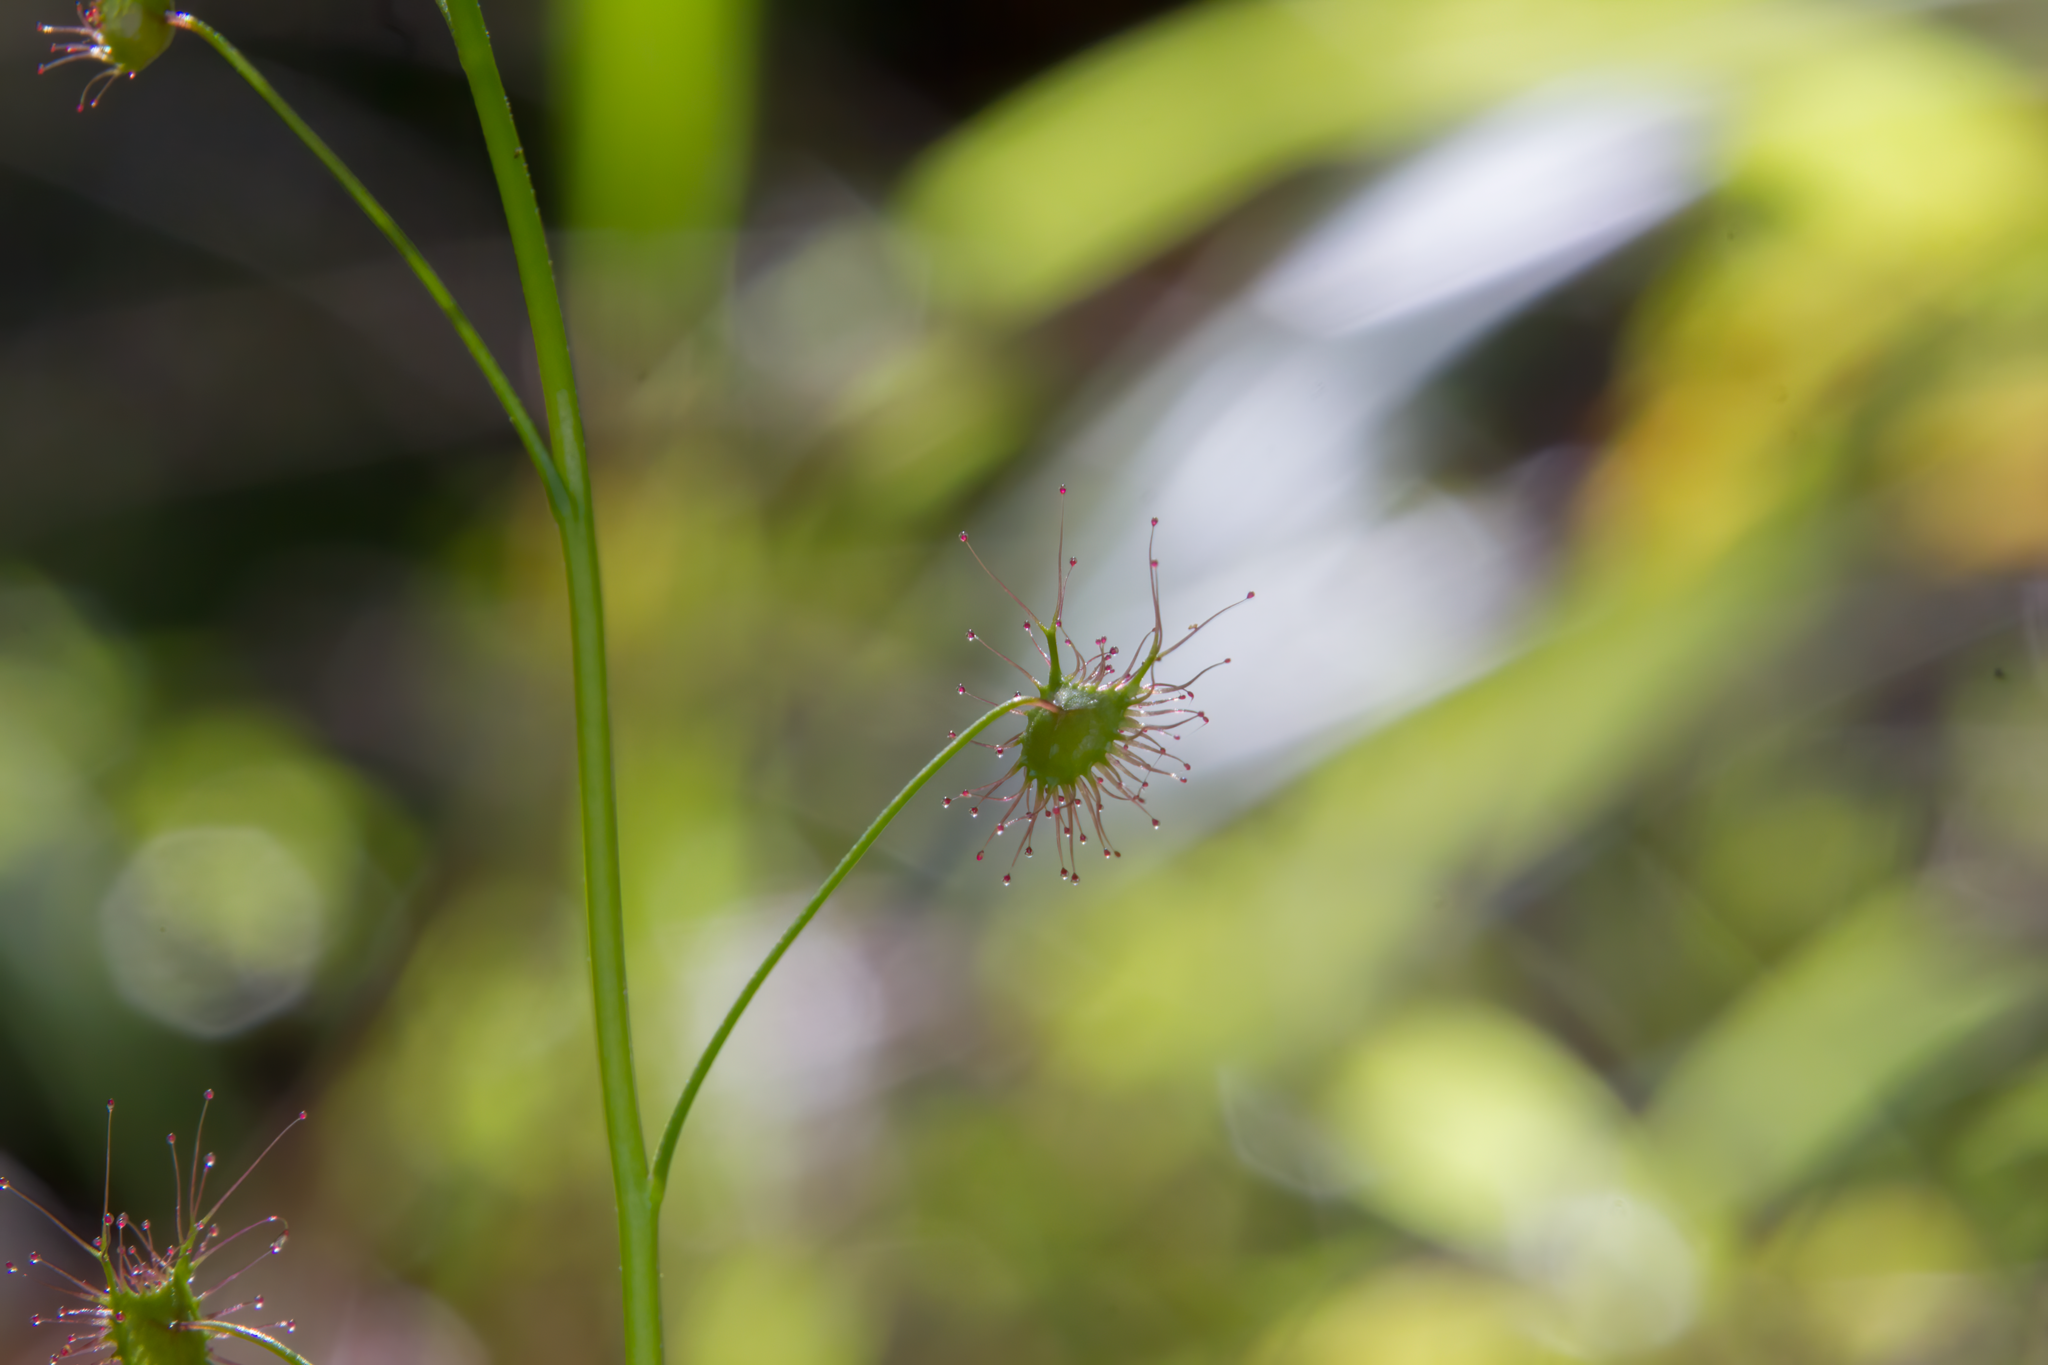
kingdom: Plantae
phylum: Tracheophyta
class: Magnoliopsida
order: Caryophyllales
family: Droseraceae
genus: Drosera
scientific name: Drosera peltata
